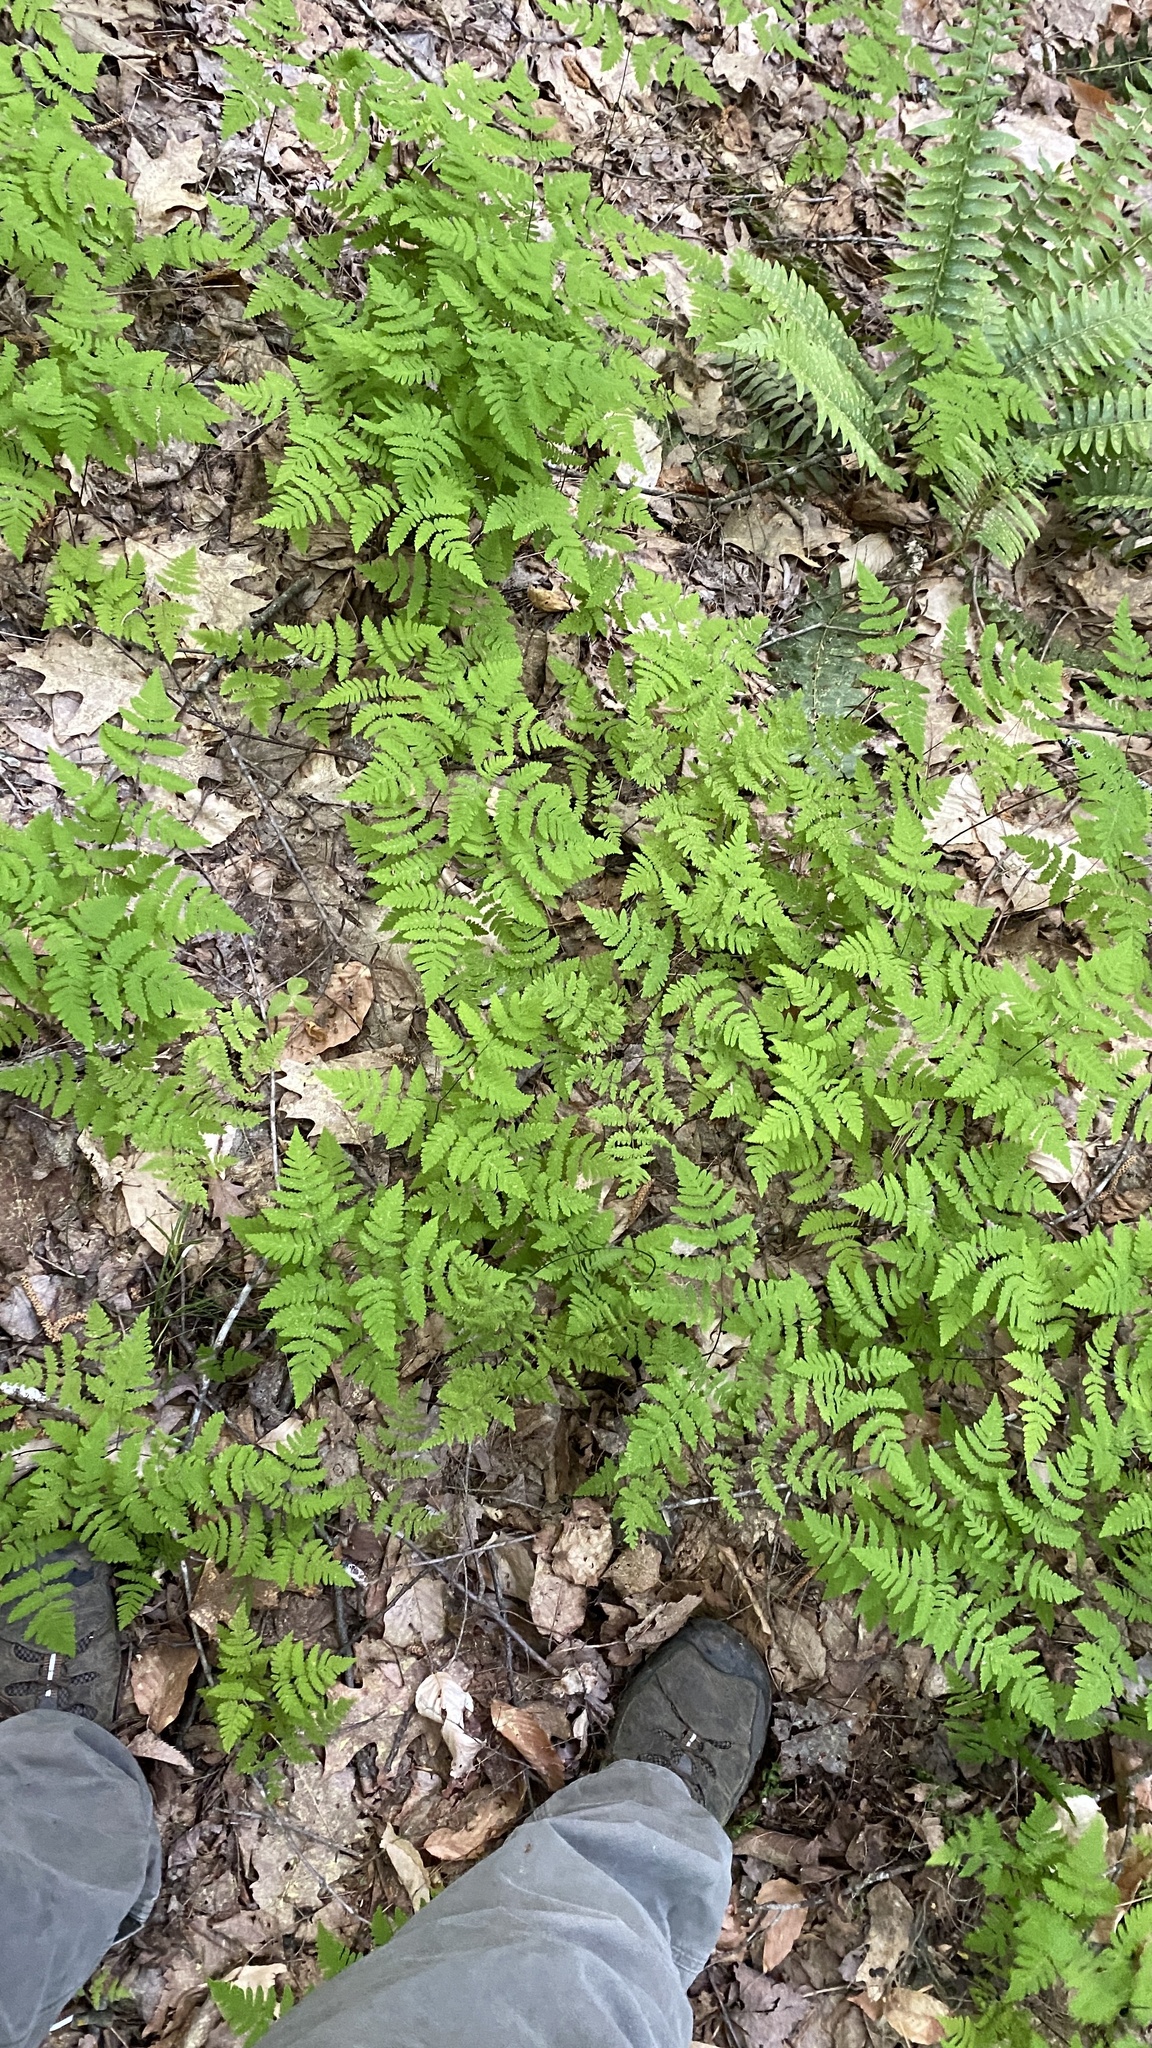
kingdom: Plantae
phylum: Tracheophyta
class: Polypodiopsida
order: Polypodiales
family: Cystopteridaceae
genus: Gymnocarpium
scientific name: Gymnocarpium dryopteris
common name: Oak fern
